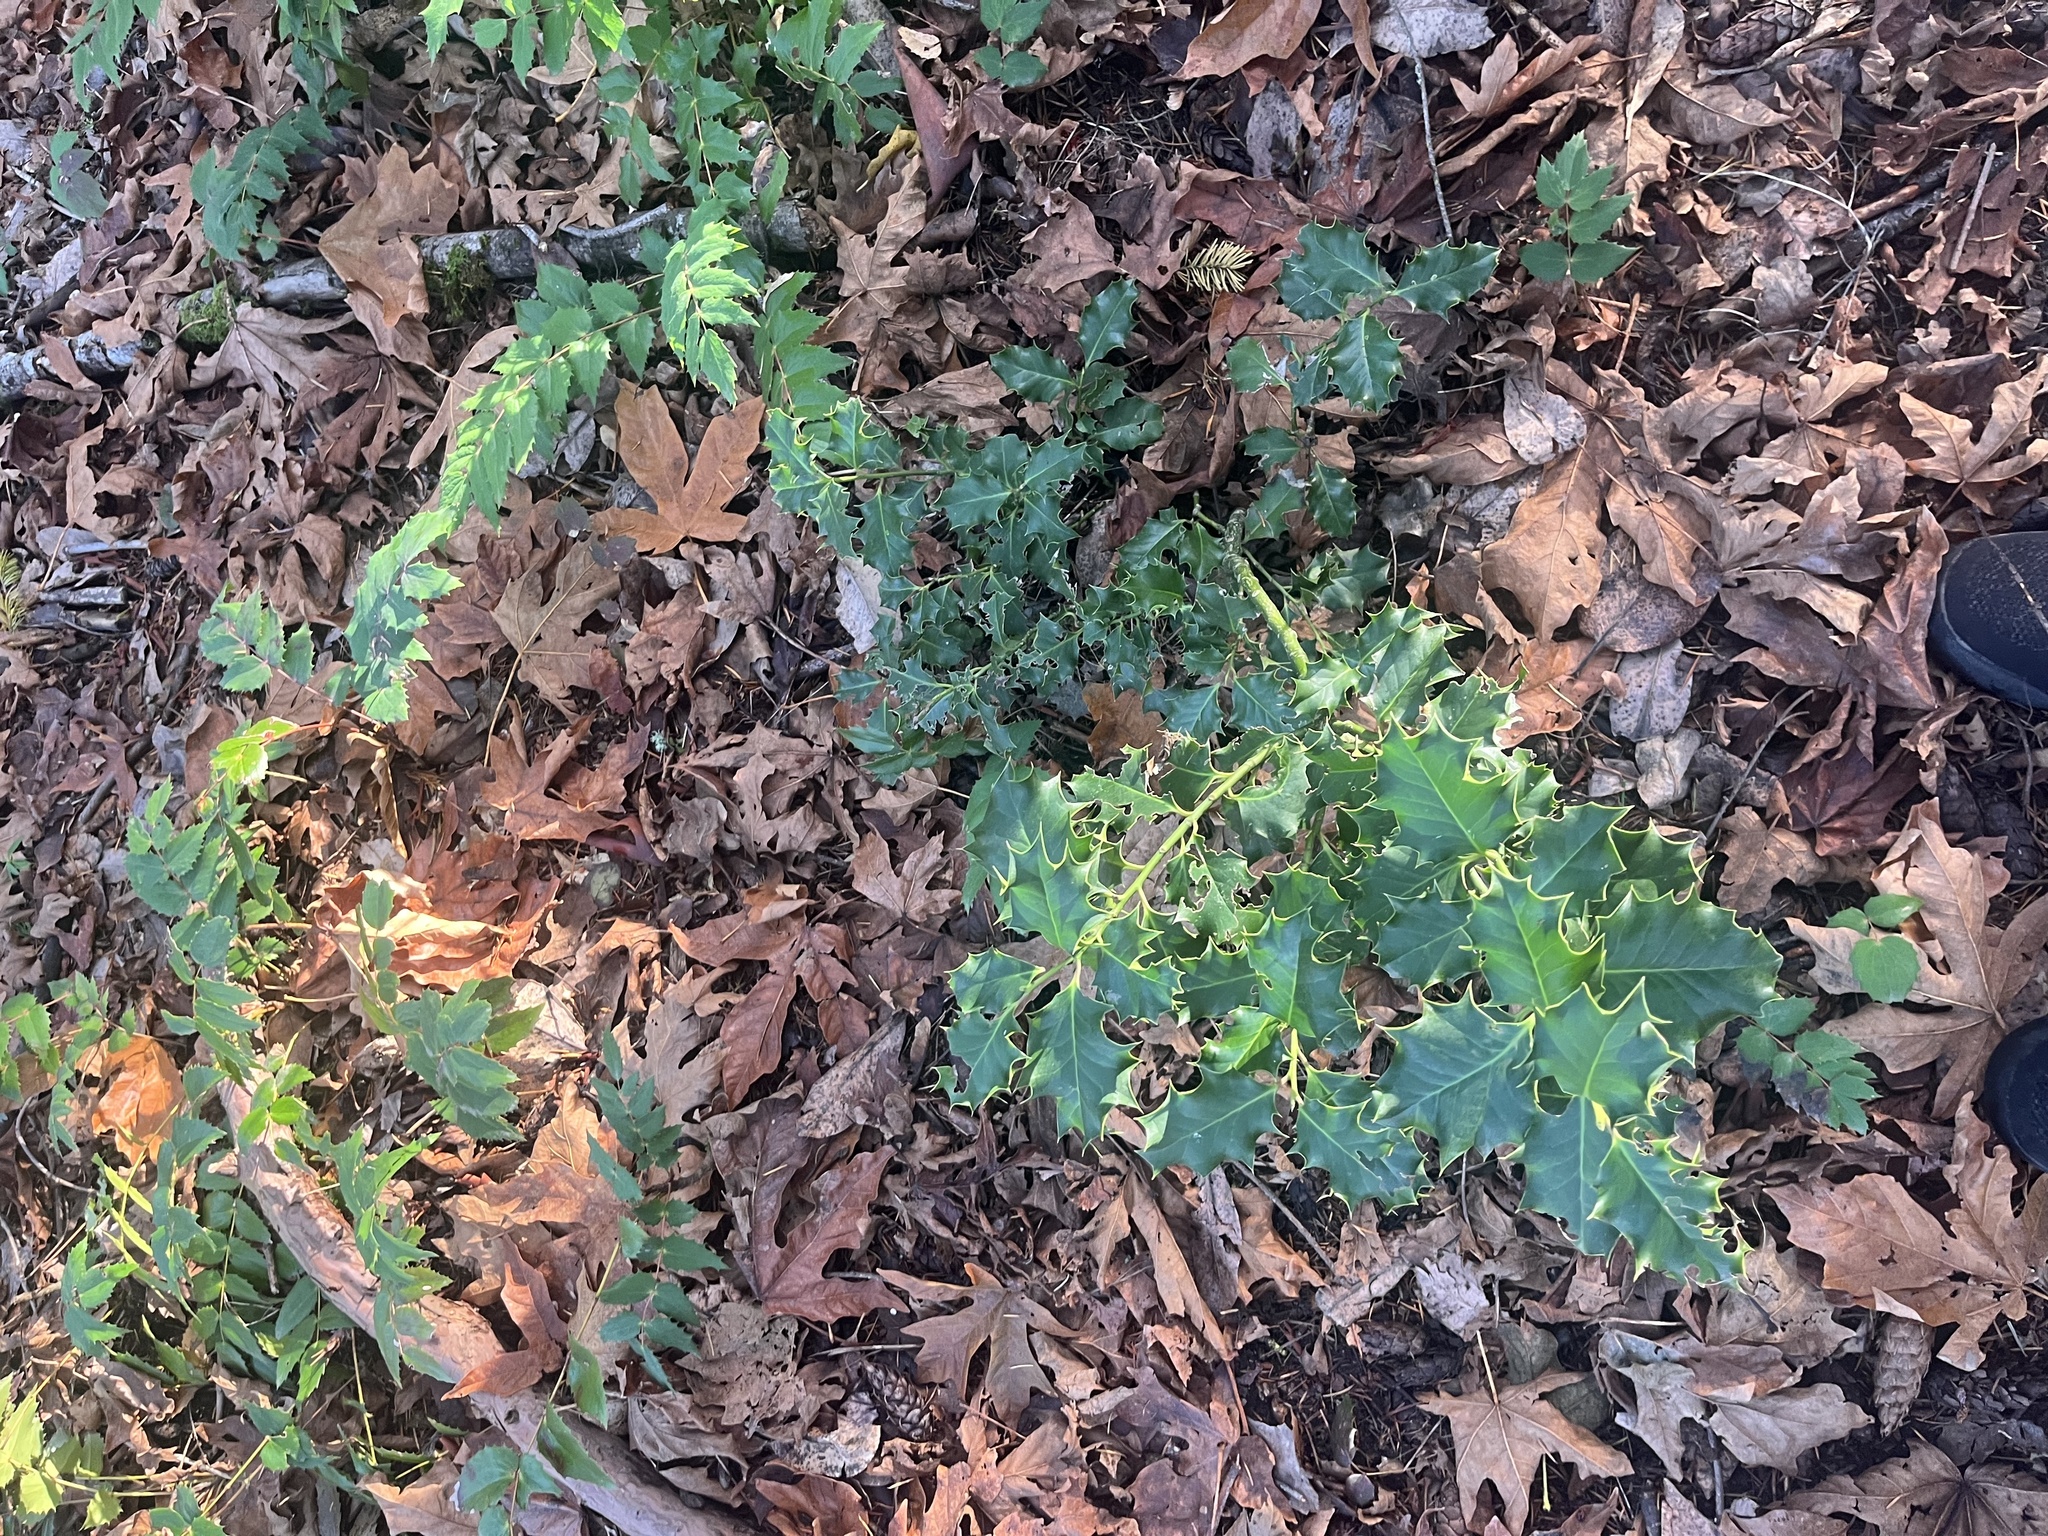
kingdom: Plantae
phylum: Tracheophyta
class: Magnoliopsida
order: Aquifoliales
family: Aquifoliaceae
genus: Ilex
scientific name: Ilex aquifolium
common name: English holly
